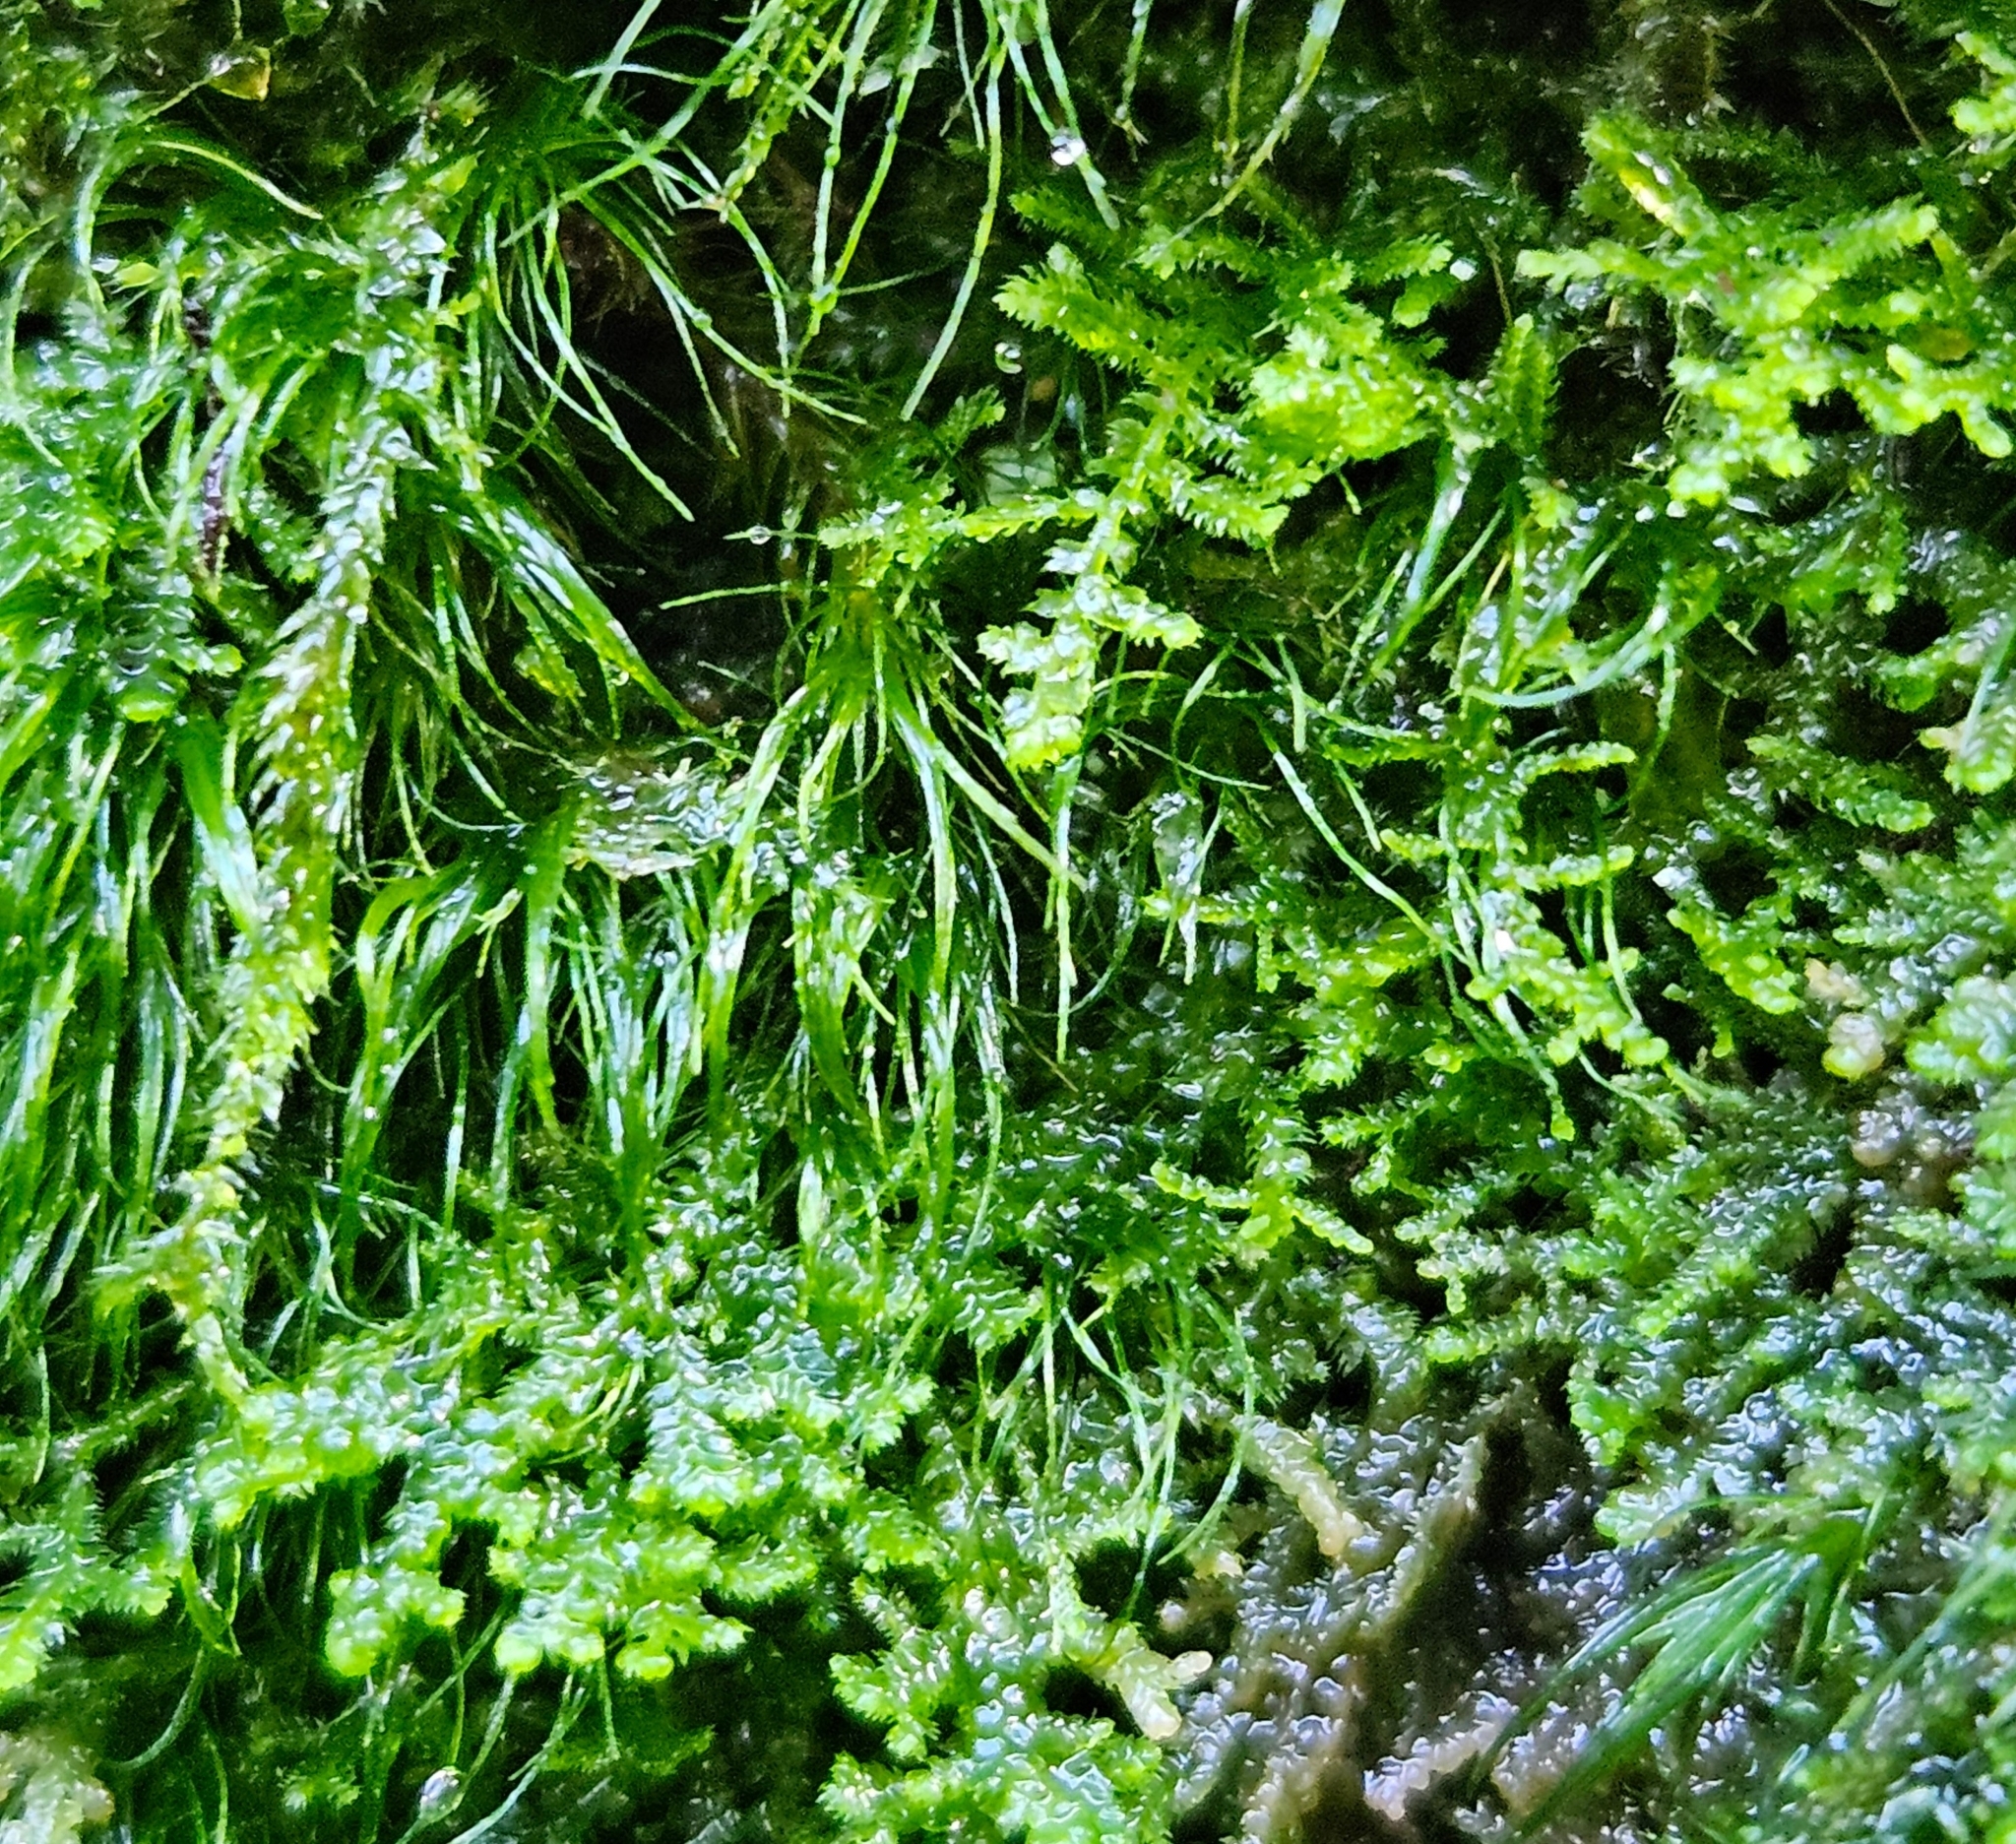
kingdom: Plantae
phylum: Marchantiophyta
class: Jungermanniopsida
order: Jungermanniales
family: Lepidoziaceae
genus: Lepidozia
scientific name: Lepidozia reptans
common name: Creeping fingerwort
